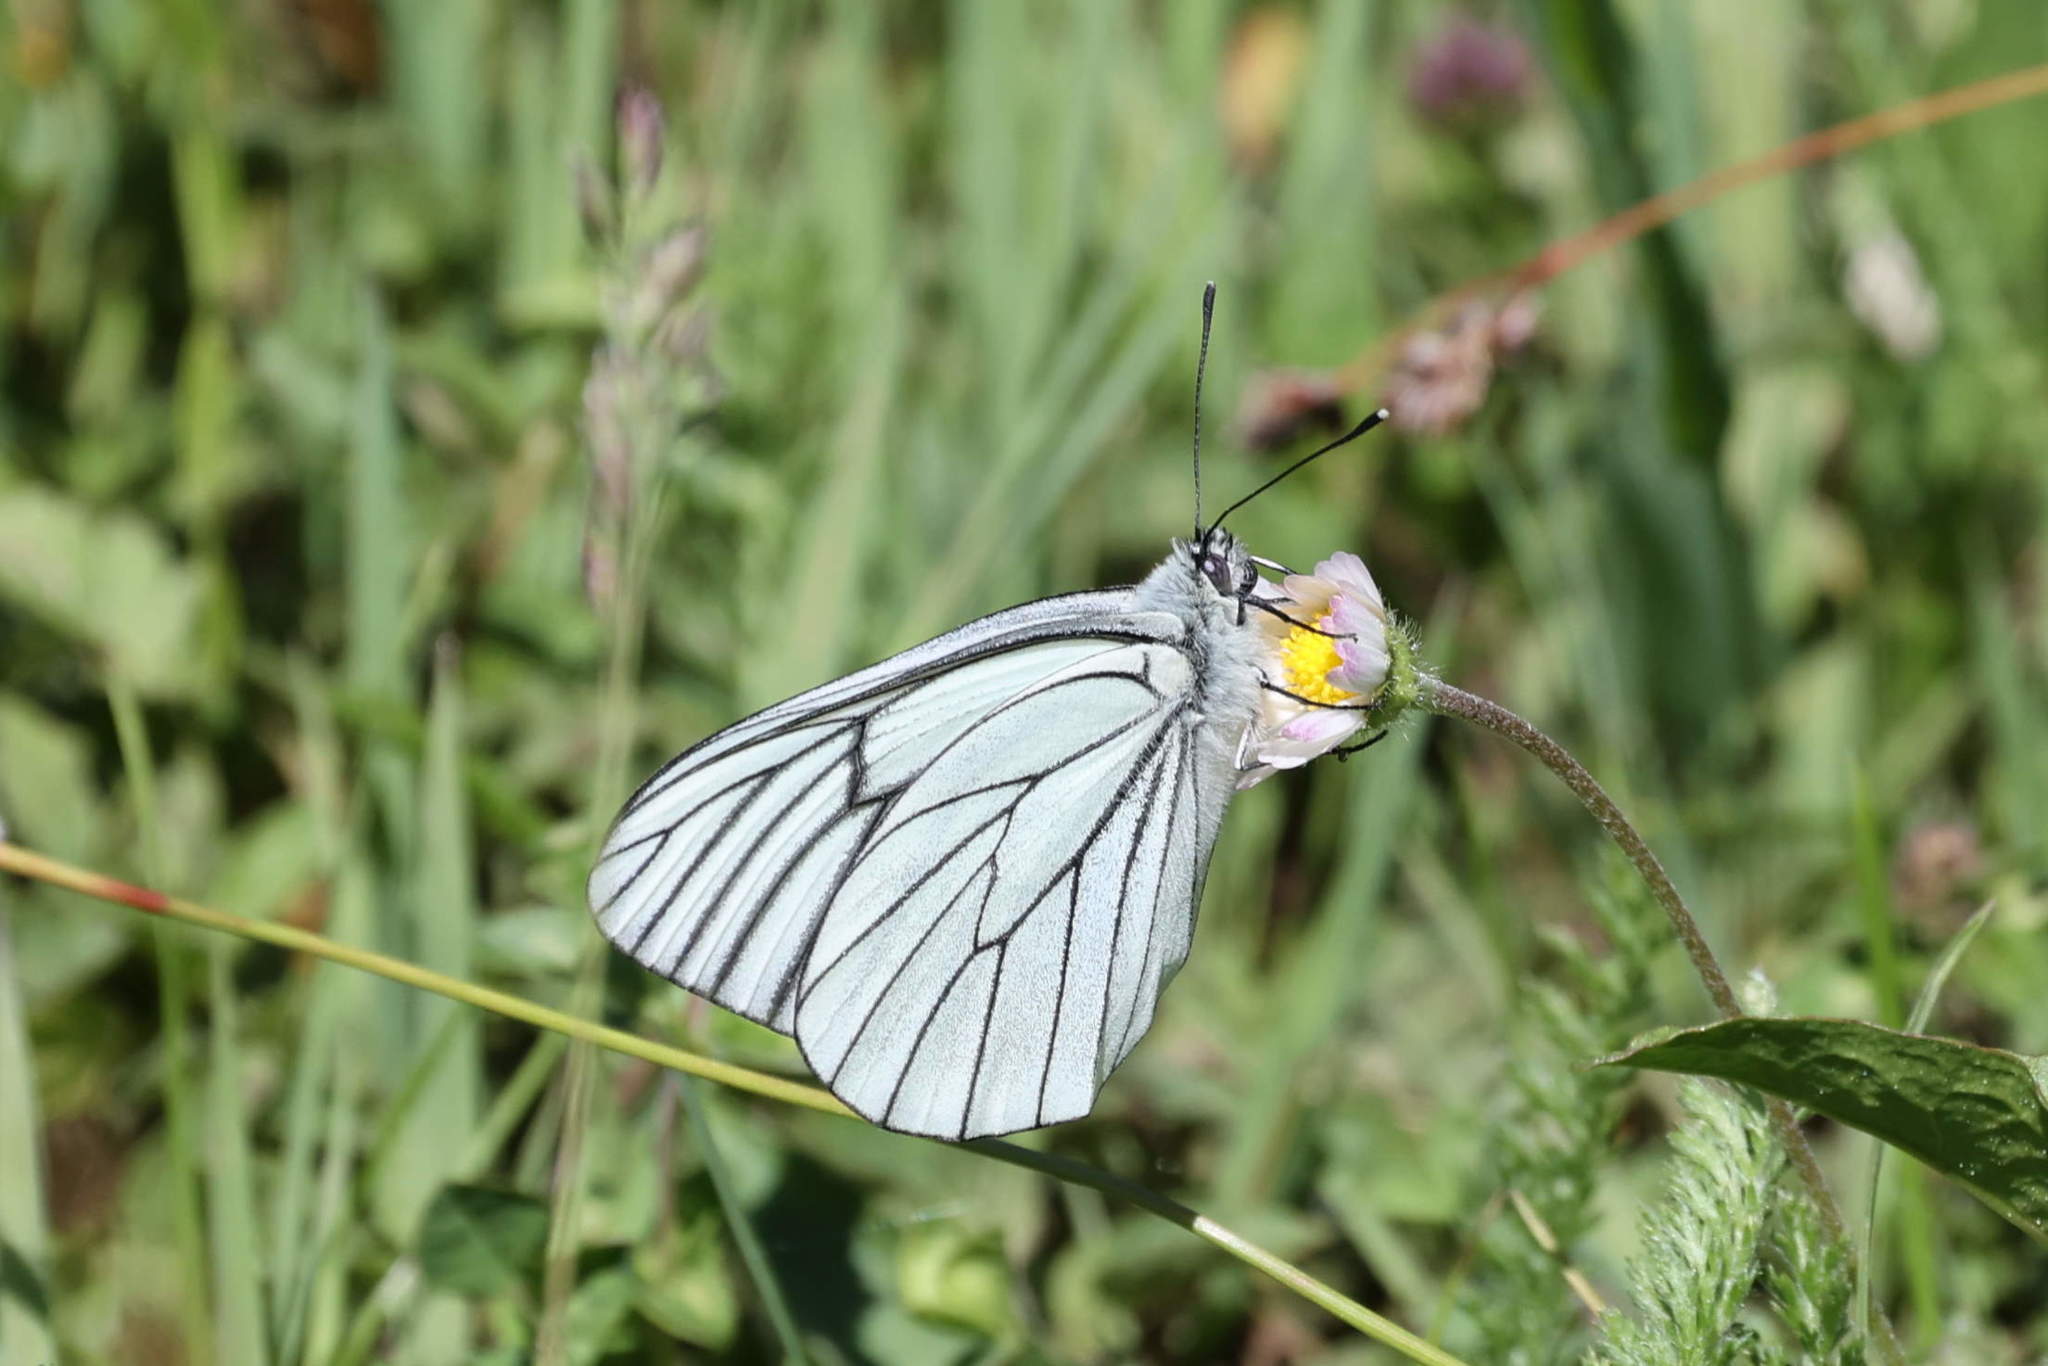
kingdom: Animalia
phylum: Arthropoda
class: Insecta
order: Lepidoptera
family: Pieridae
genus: Aporia
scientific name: Aporia crataegi
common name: Black-veined white
